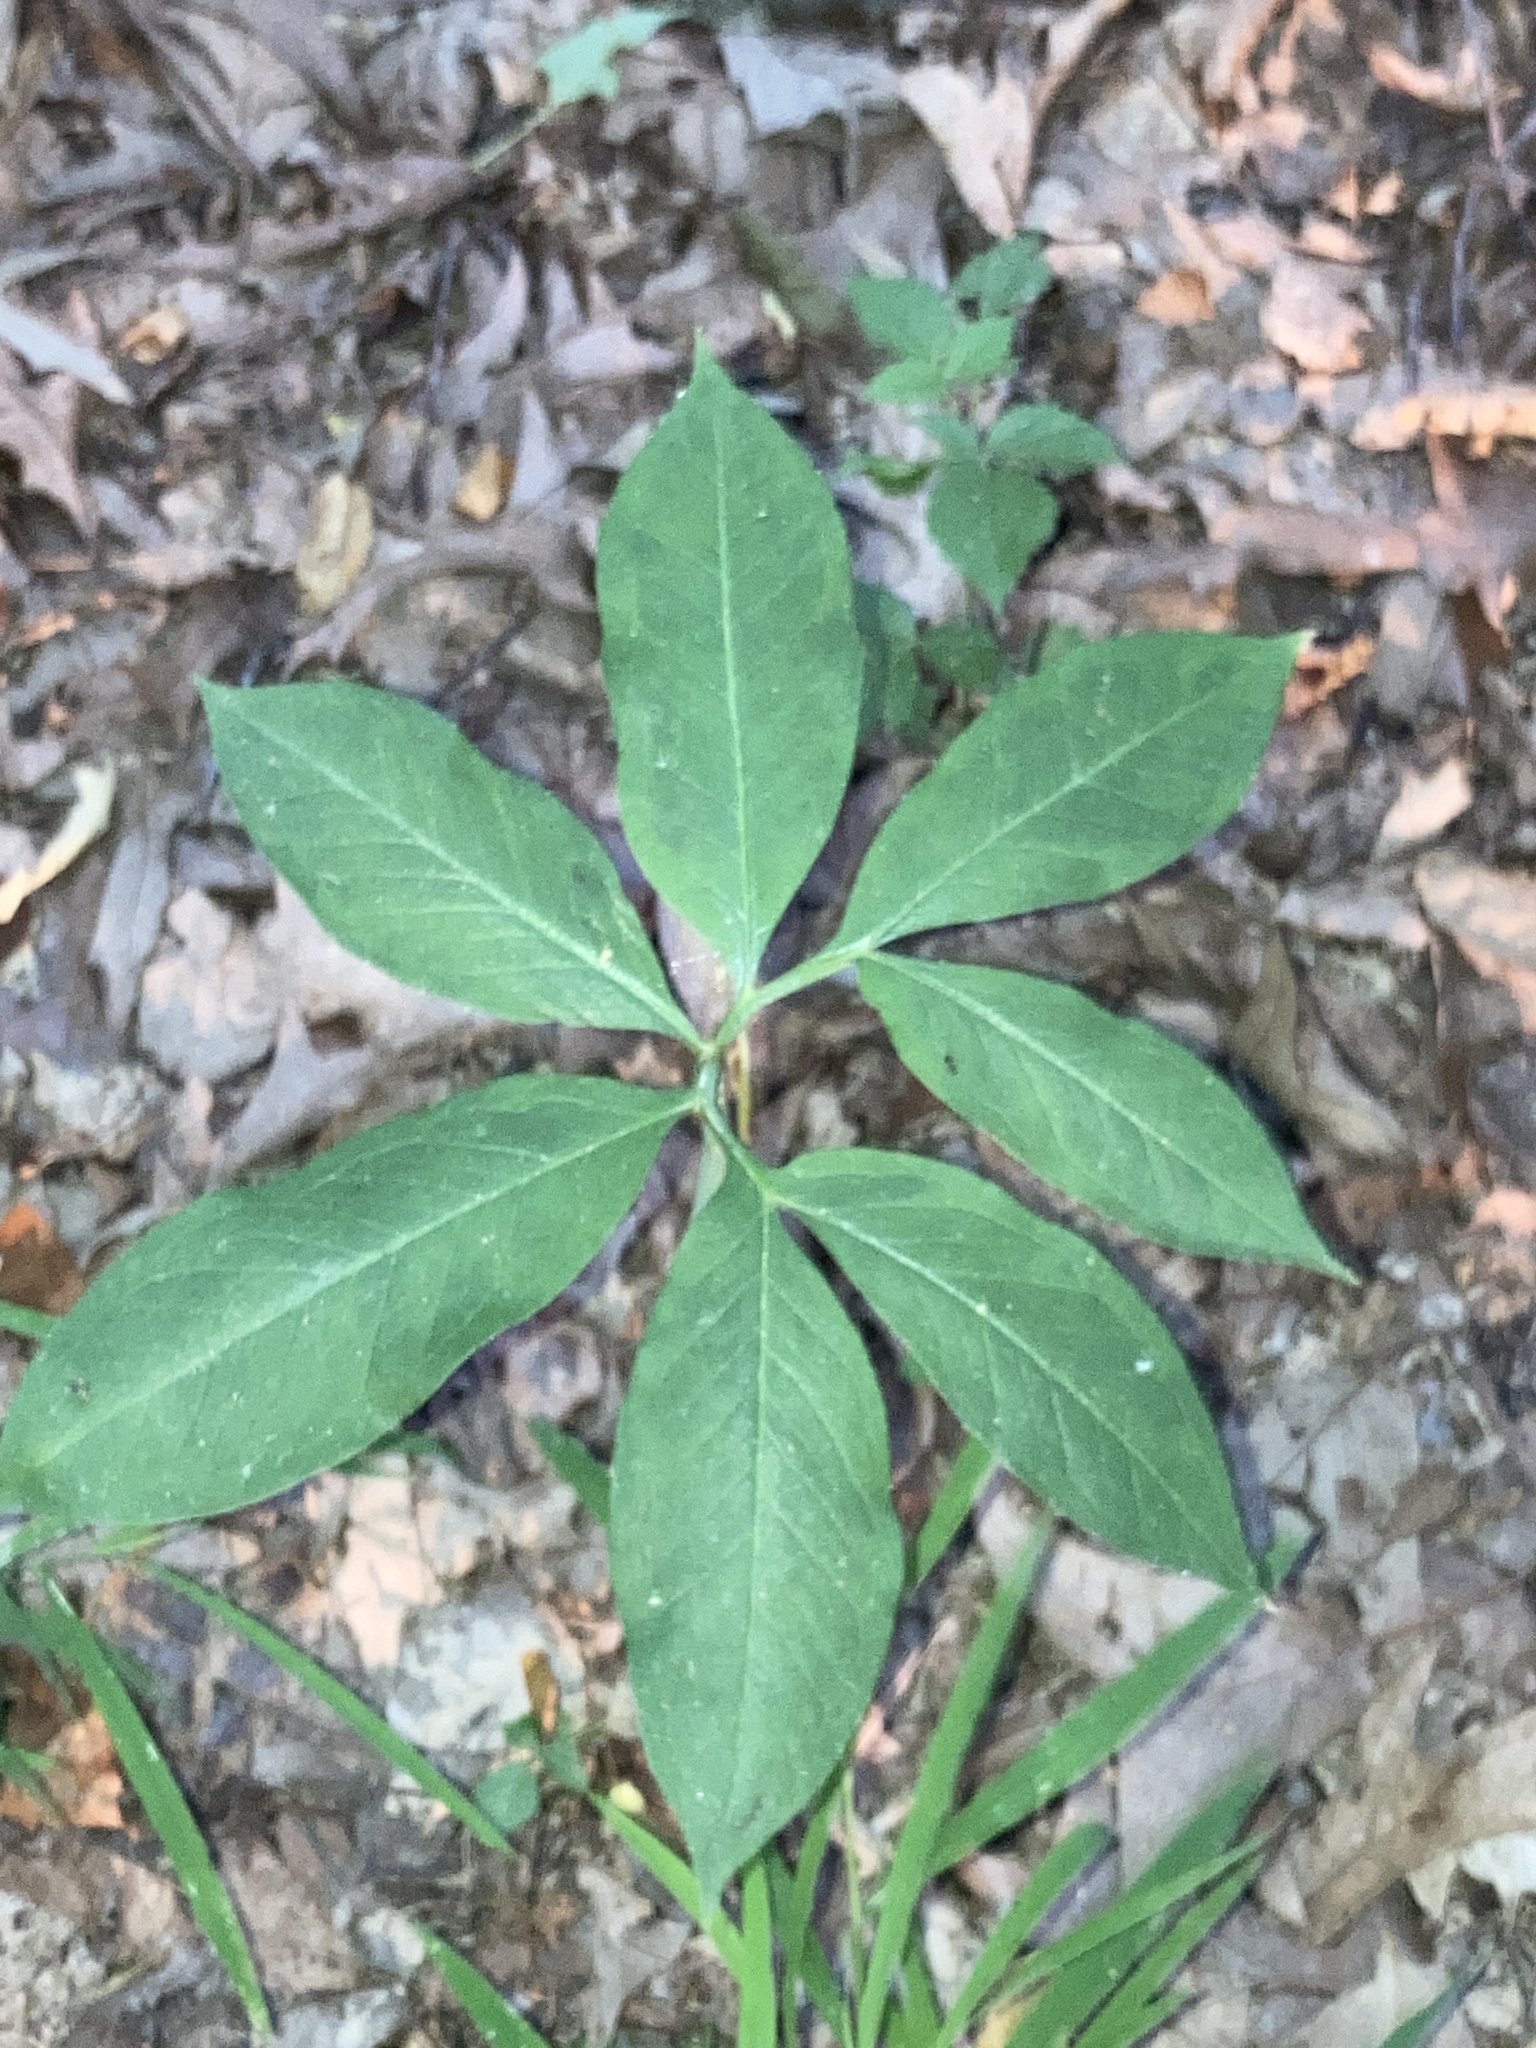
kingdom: Plantae
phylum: Tracheophyta
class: Liliopsida
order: Alismatales
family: Araceae
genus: Arisaema
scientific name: Arisaema dracontium
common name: Dragon-arum
